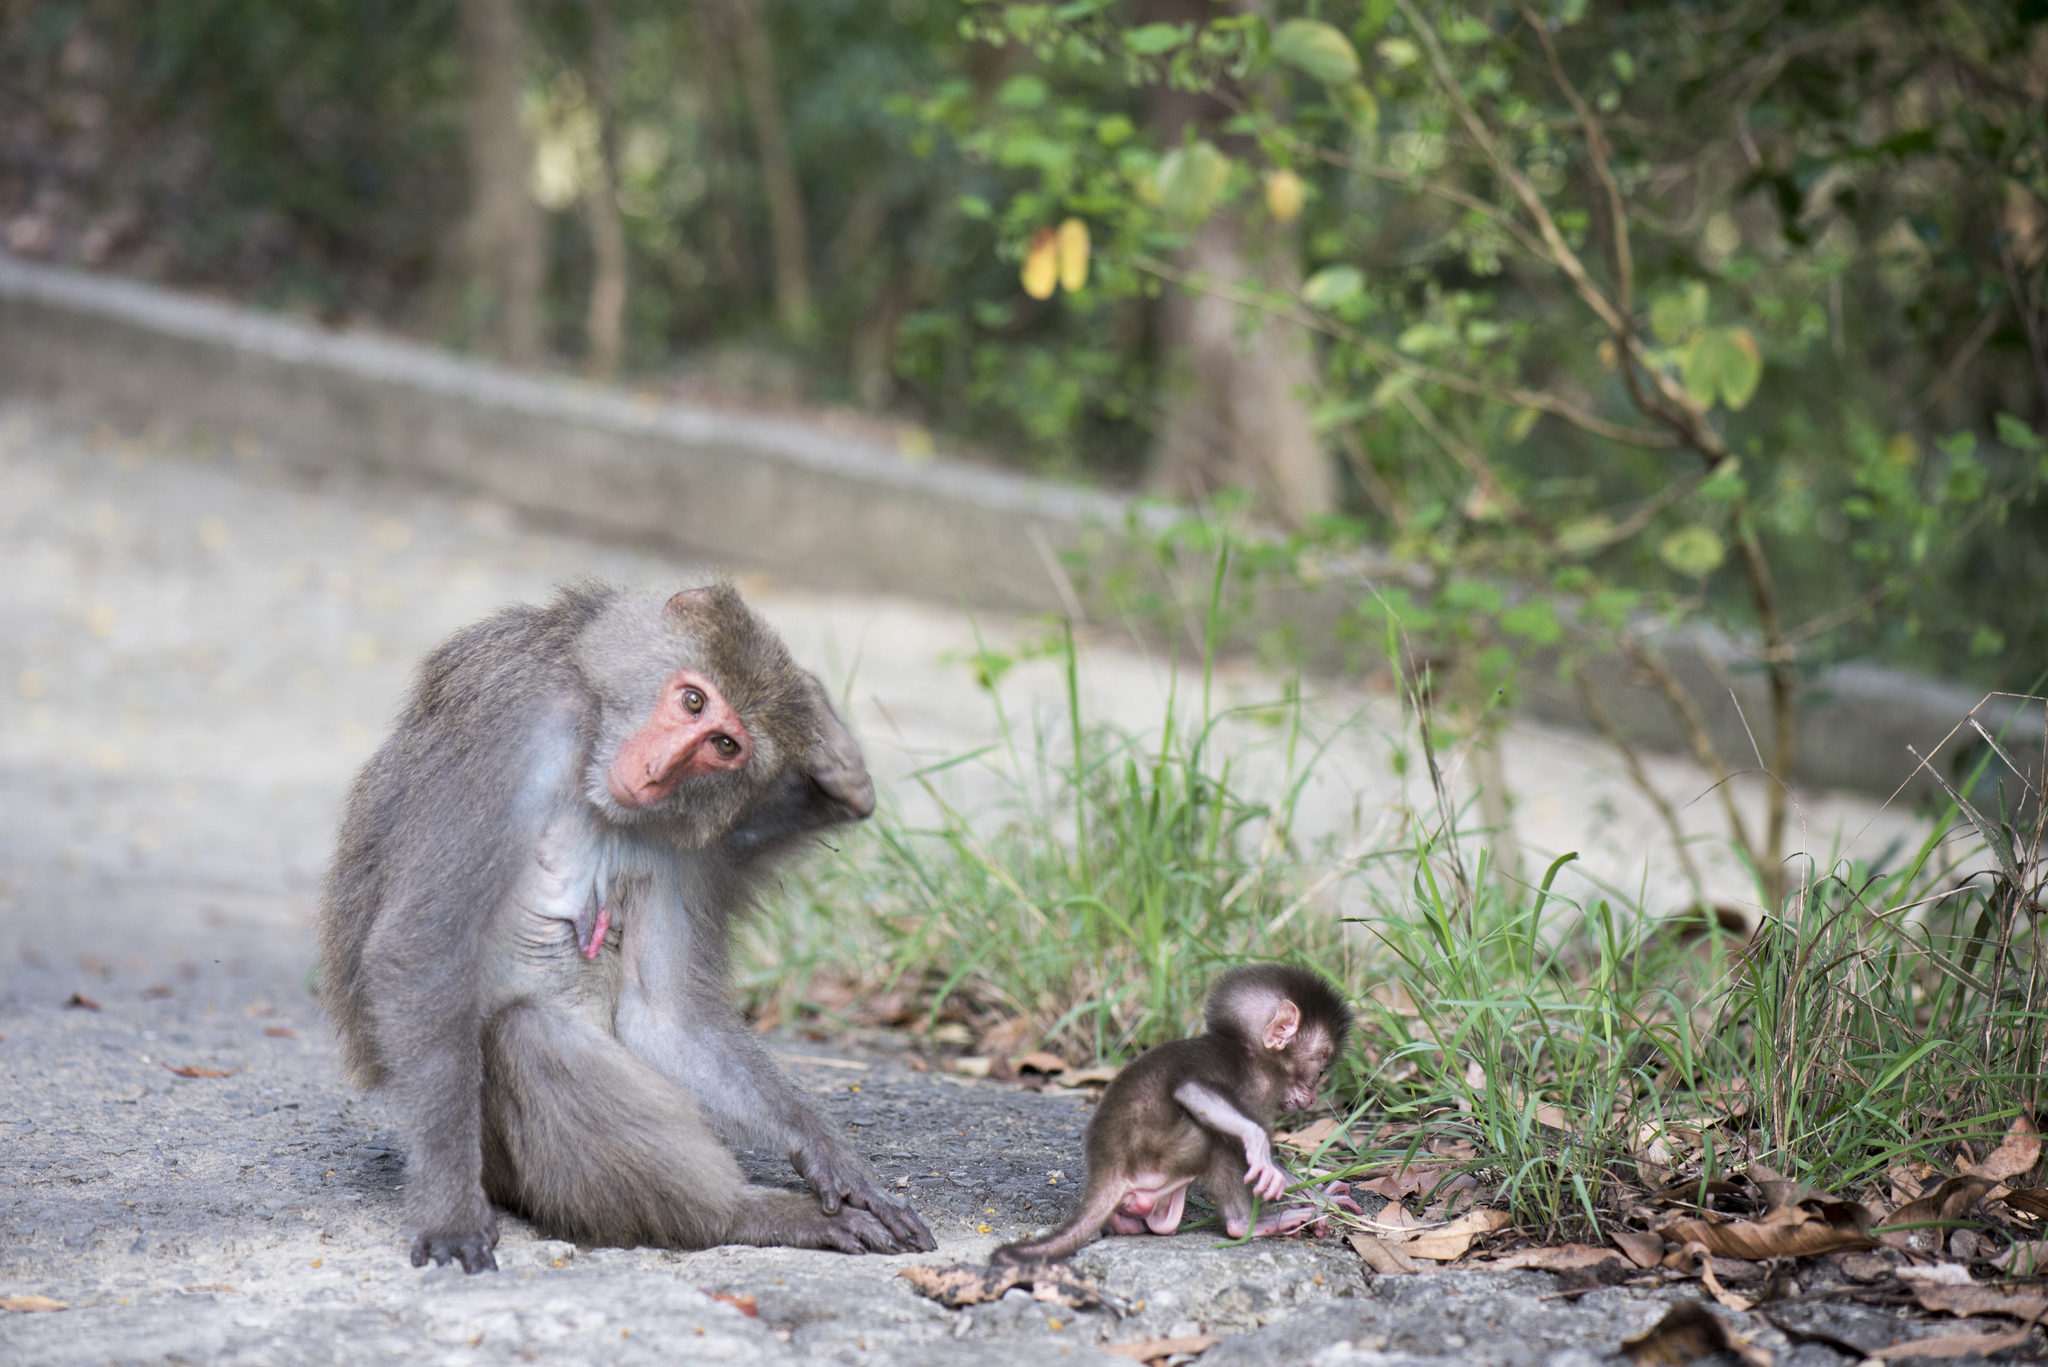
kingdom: Animalia
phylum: Chordata
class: Mammalia
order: Primates
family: Cercopithecidae
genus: Macaca
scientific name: Macaca cyclopis
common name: Formosan rock macaque
